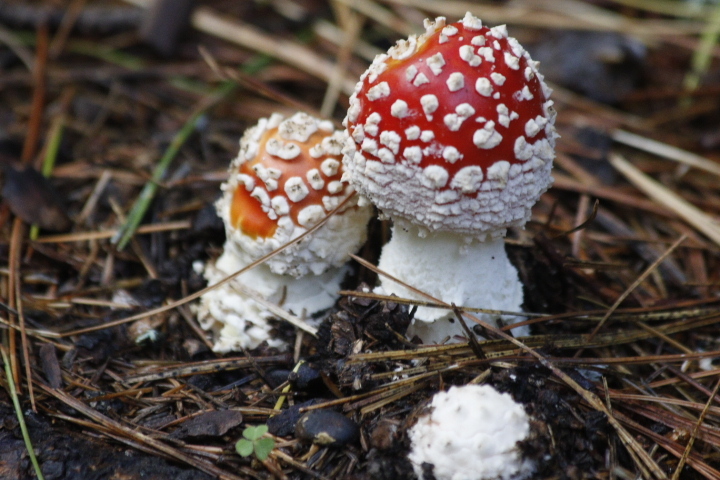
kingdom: Fungi
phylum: Basidiomycota
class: Agaricomycetes
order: Agaricales
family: Amanitaceae
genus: Amanita
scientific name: Amanita muscaria
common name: Fly agaric
